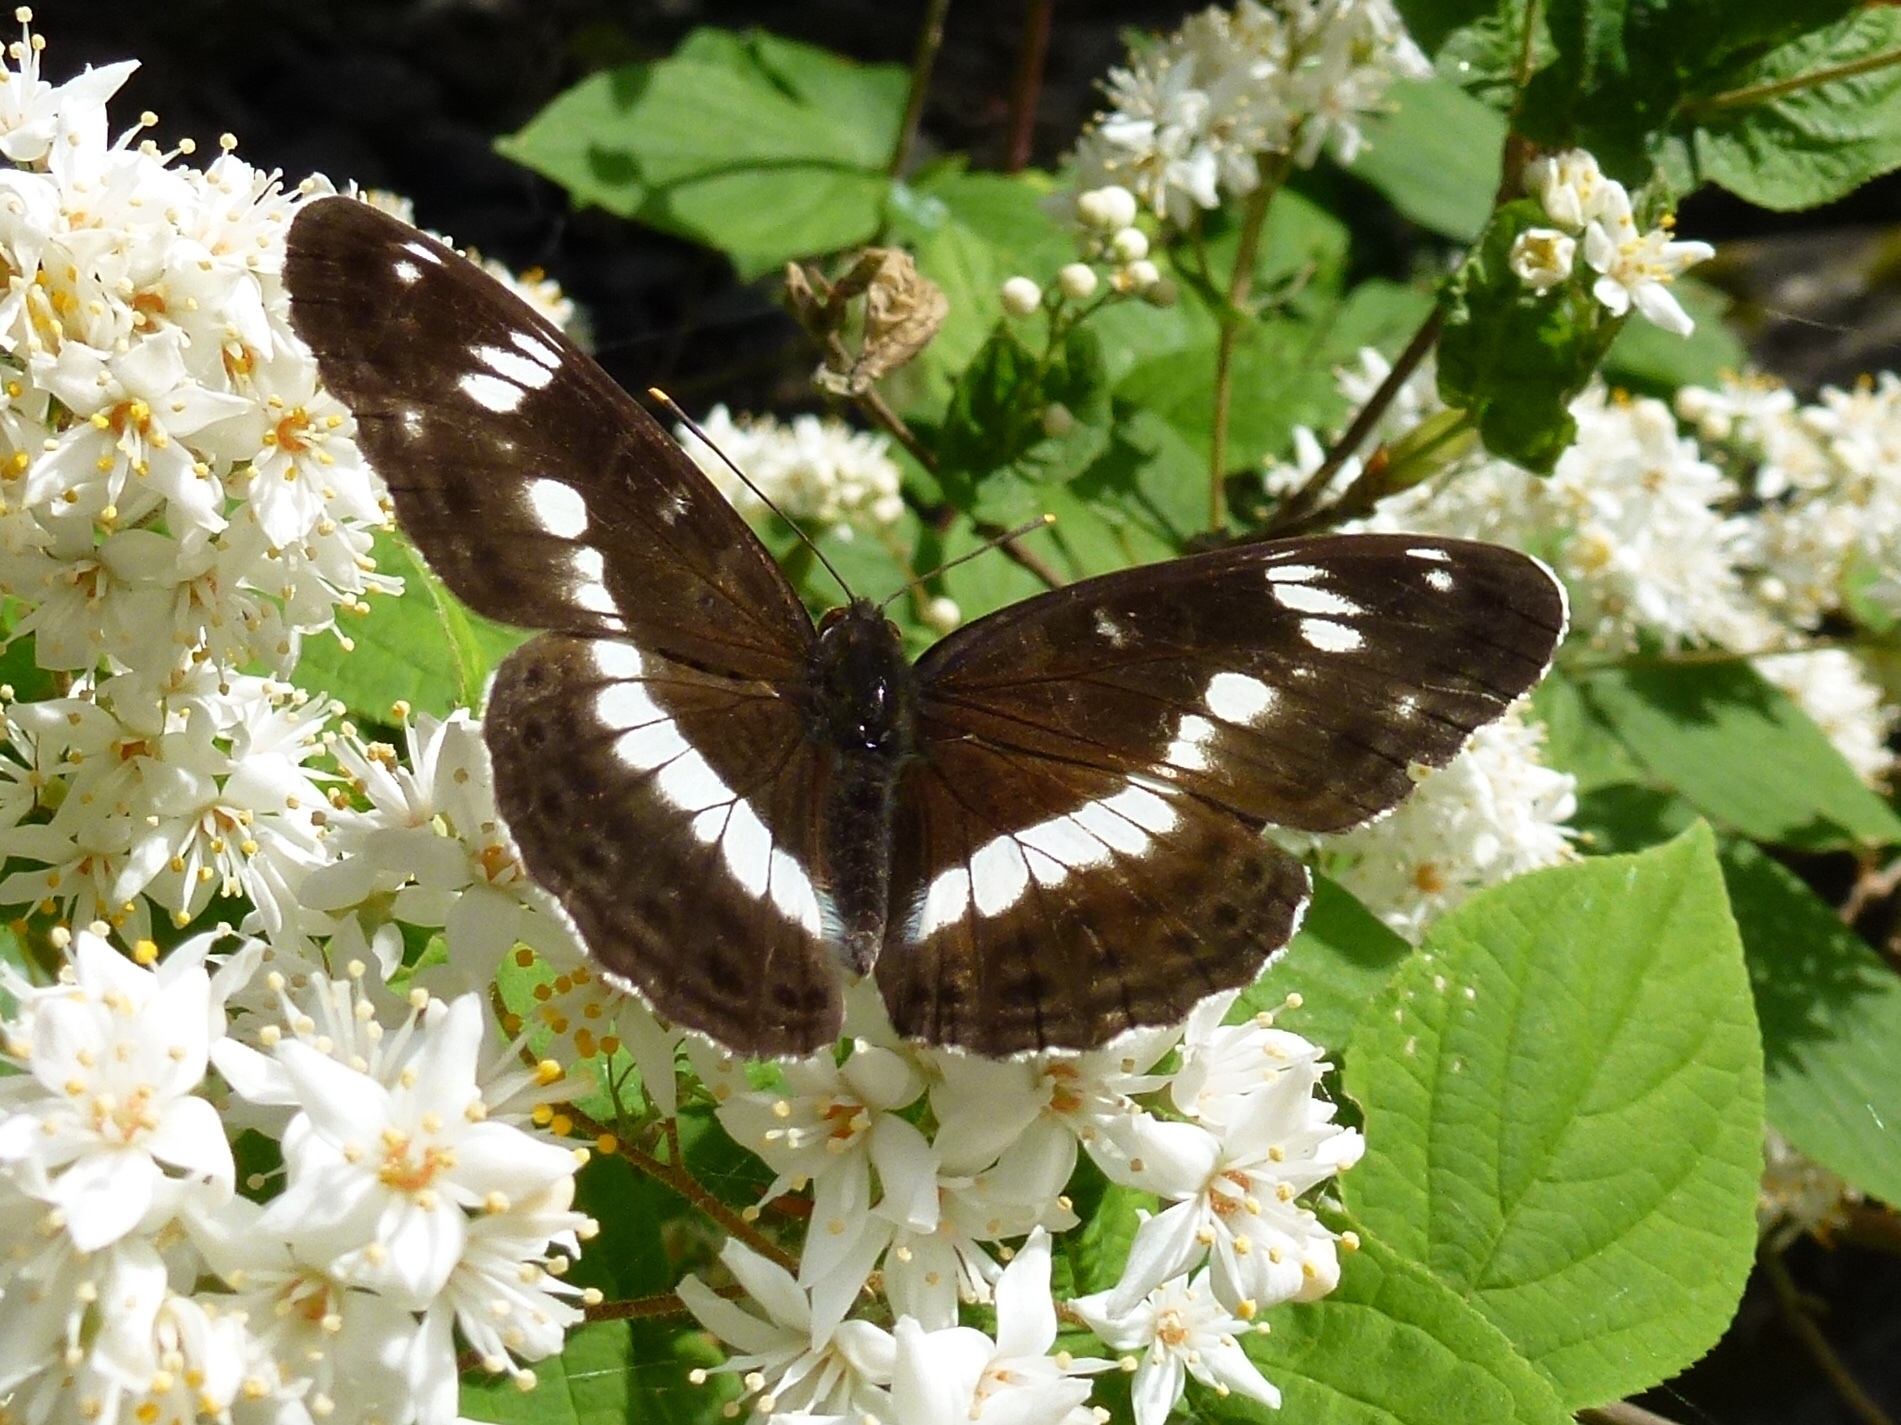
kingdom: Animalia
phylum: Arthropoda
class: Insecta
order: Lepidoptera
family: Nymphalidae
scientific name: Nymphalidae
